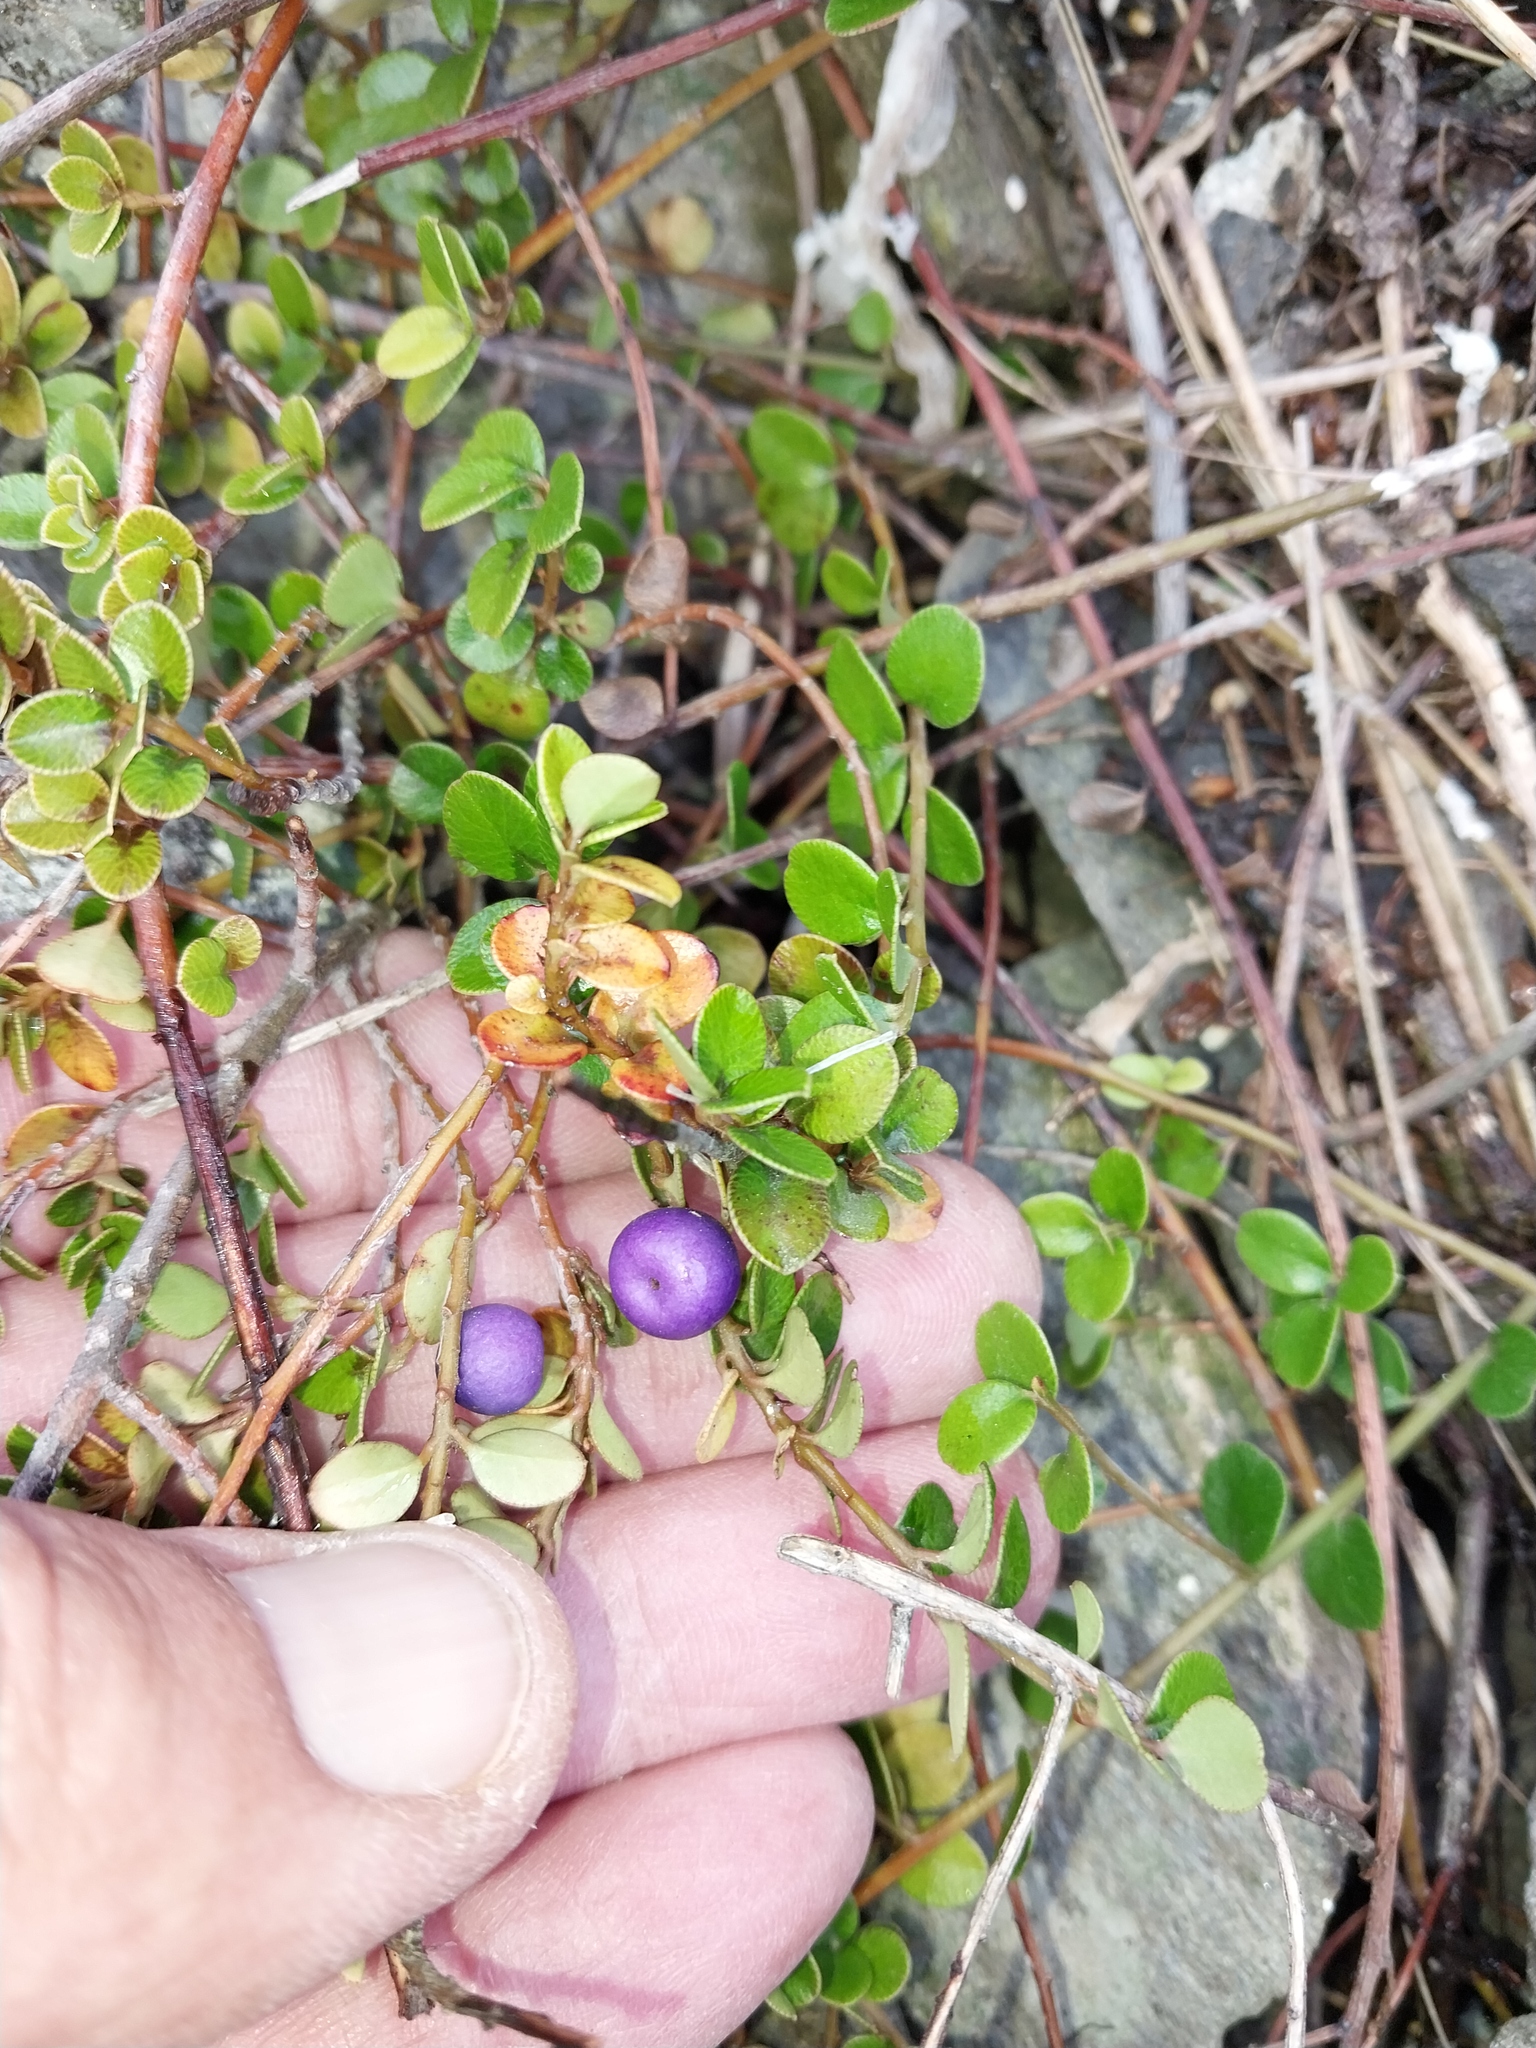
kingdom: Plantae
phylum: Tracheophyta
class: Magnoliopsida
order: Ericales
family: Primulaceae
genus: Myrsine
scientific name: Myrsine nummularia
